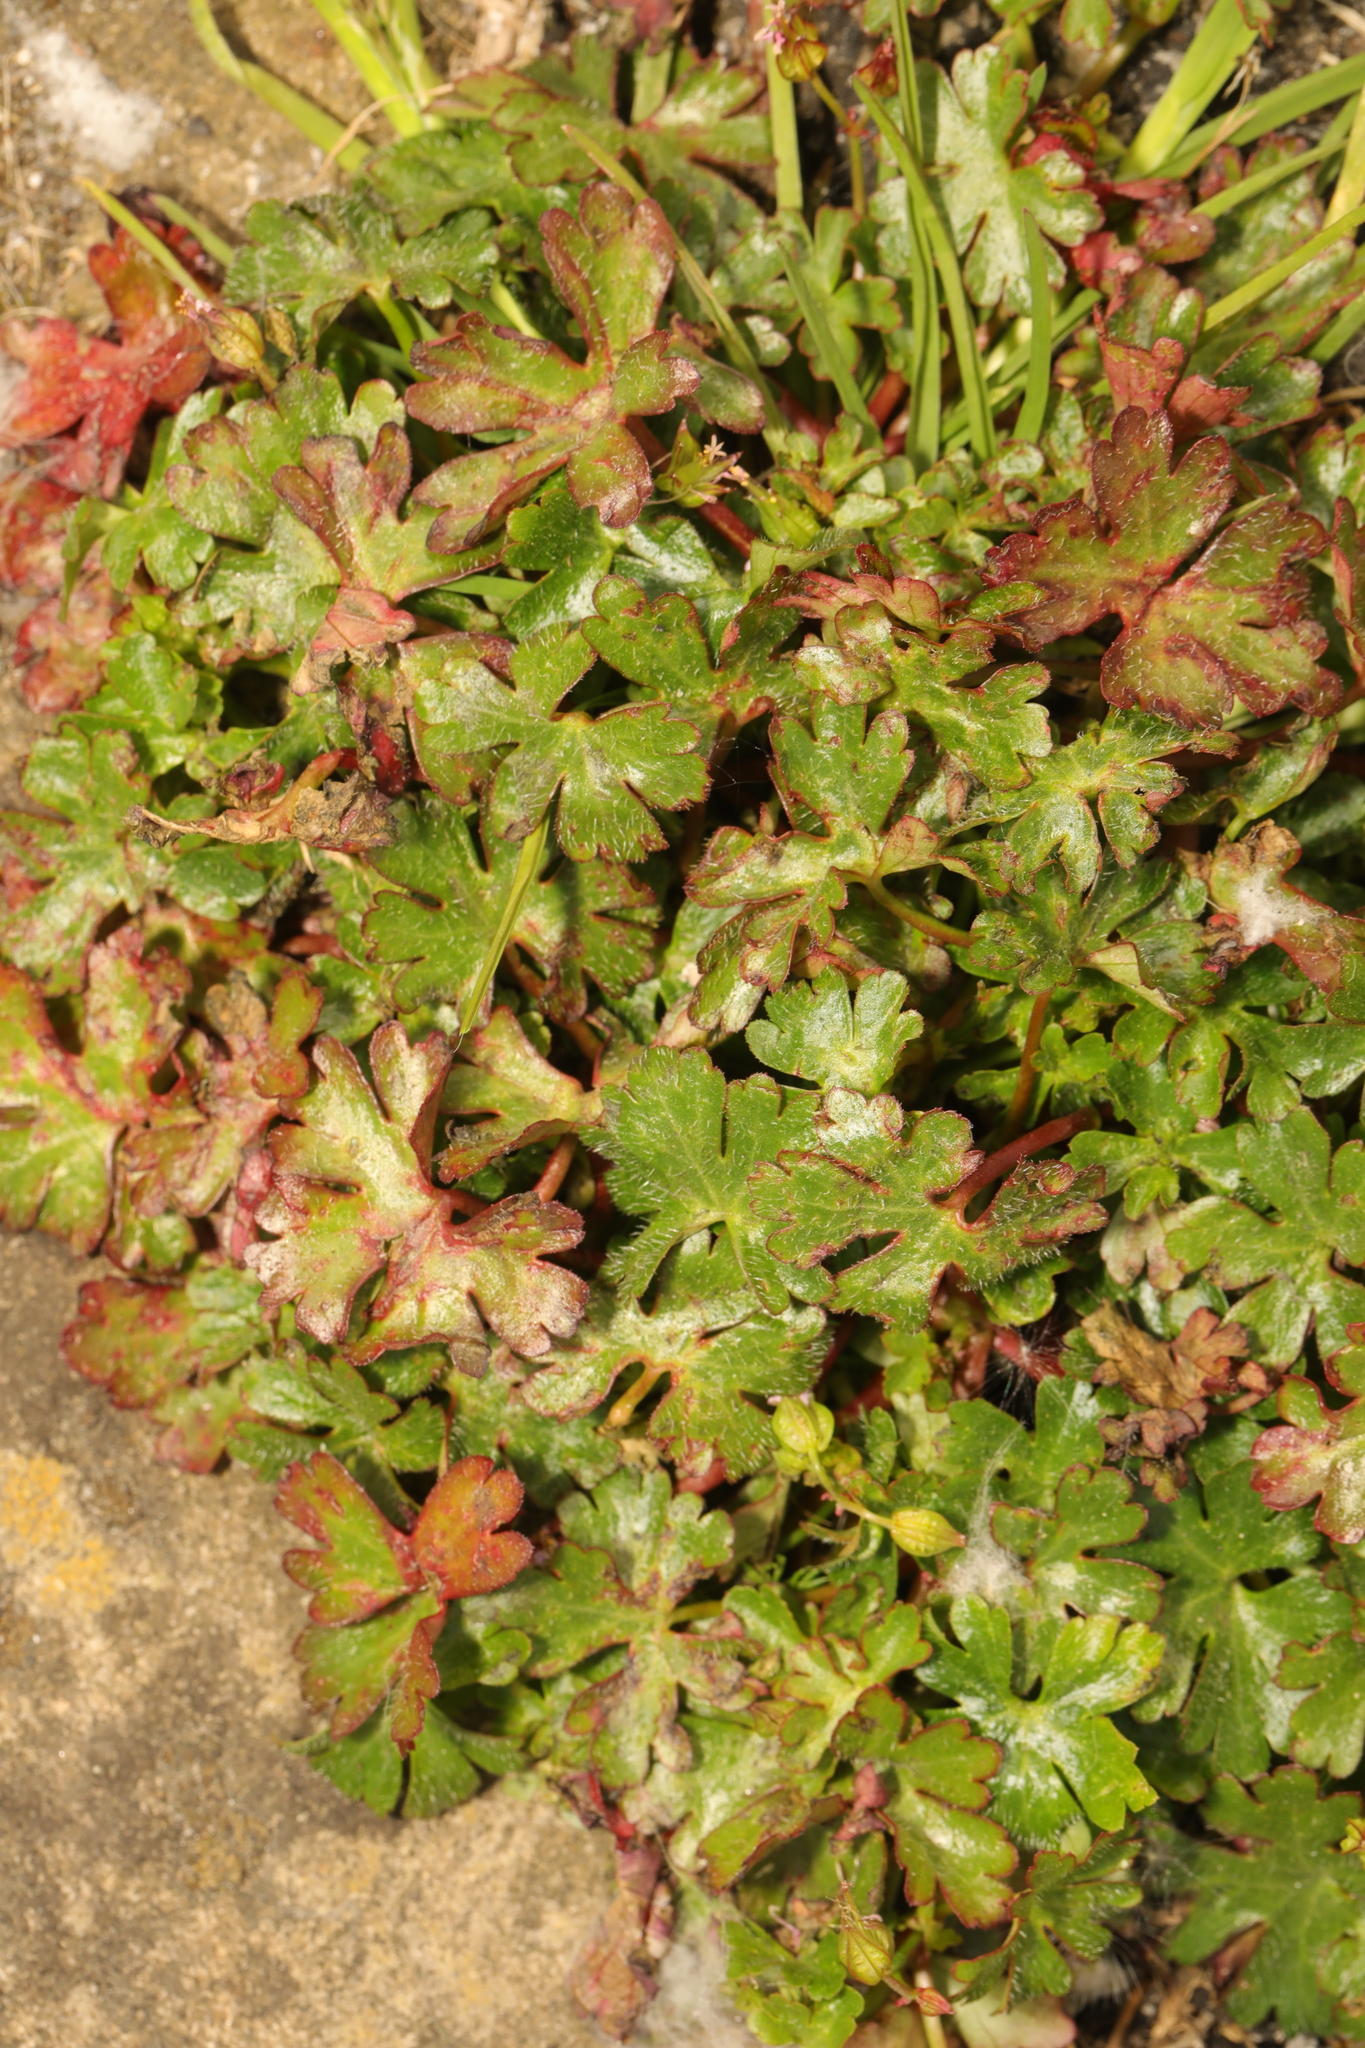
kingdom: Plantae
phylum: Tracheophyta
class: Magnoliopsida
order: Geraniales
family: Geraniaceae
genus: Geranium
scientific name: Geranium lucidum
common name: Shining crane's-bill
